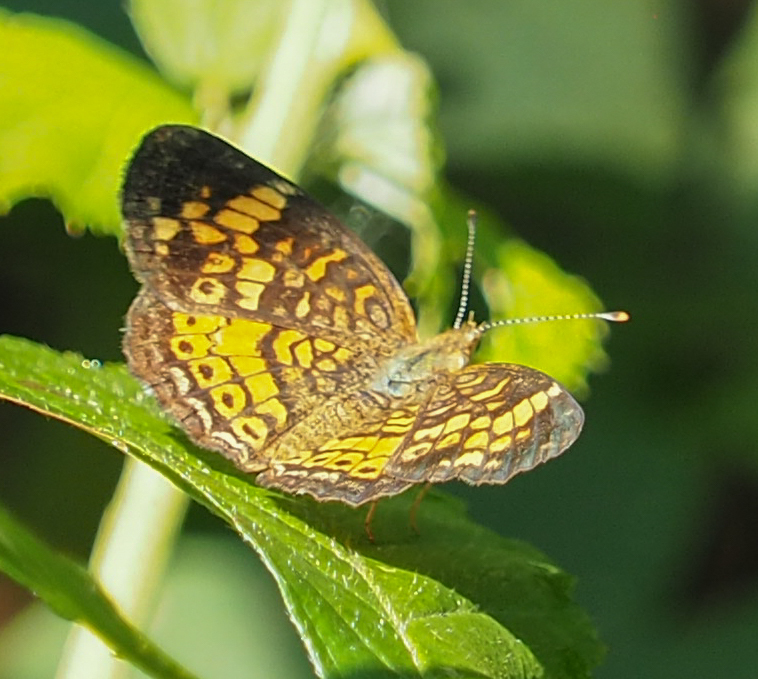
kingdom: Animalia
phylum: Arthropoda
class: Insecta
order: Lepidoptera
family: Nymphalidae
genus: Phyciodes
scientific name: Phyciodes tharos
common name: Pearl crescent
